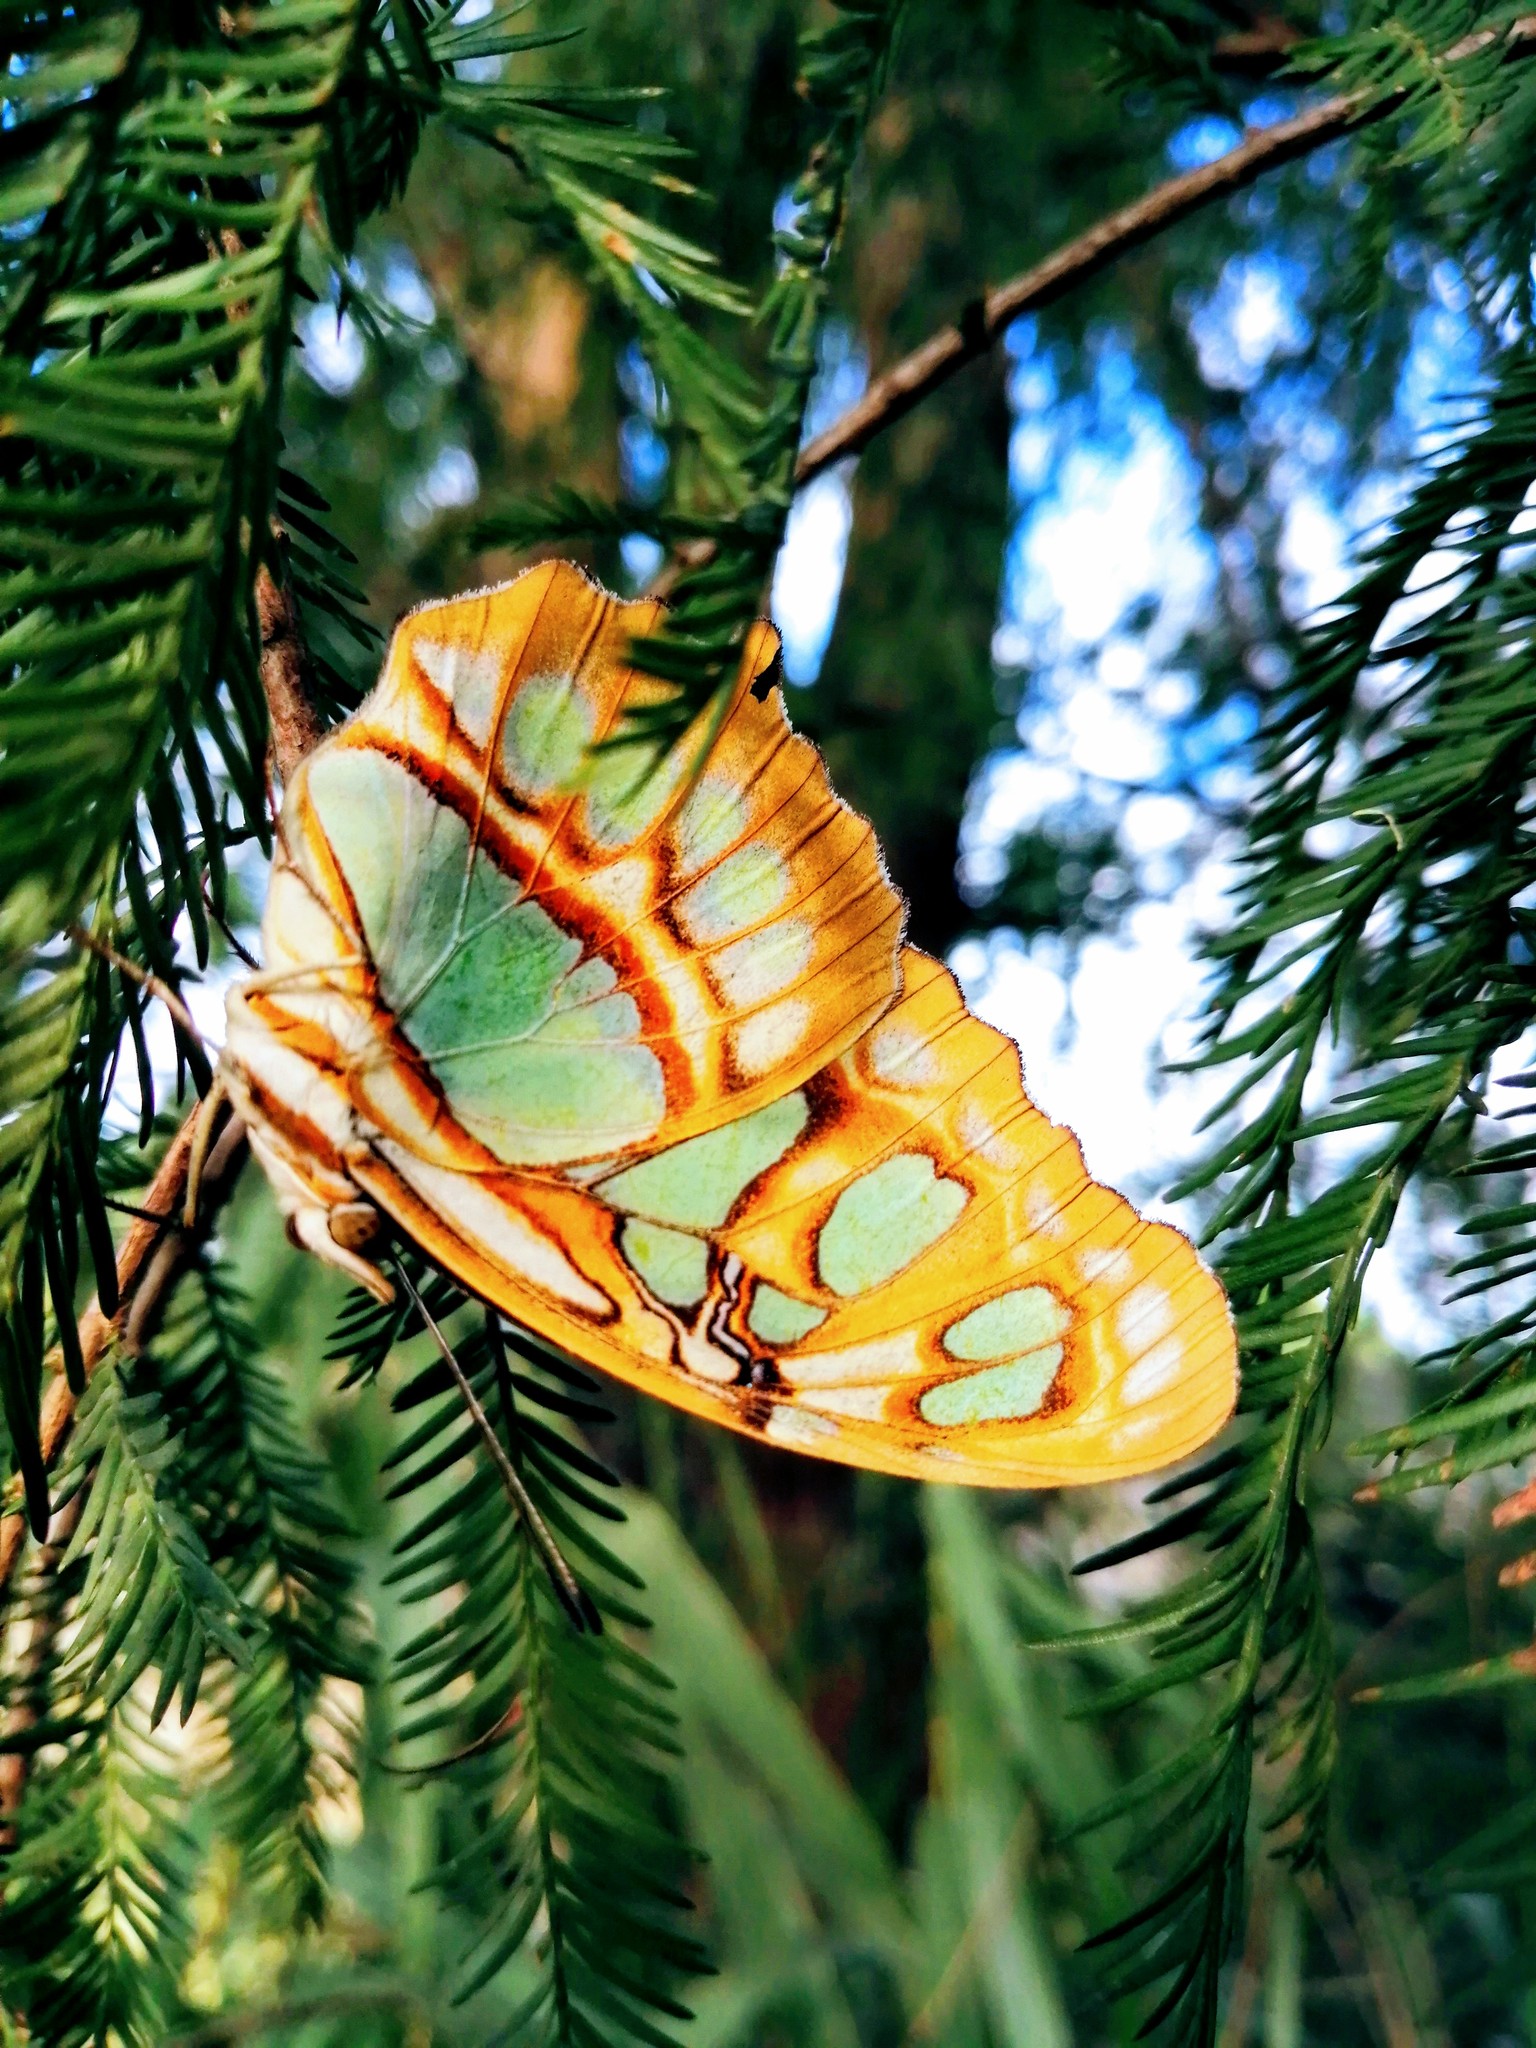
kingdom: Animalia
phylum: Arthropoda
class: Insecta
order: Lepidoptera
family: Nymphalidae
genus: Siproeta
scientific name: Siproeta stelenes
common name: Malachite
